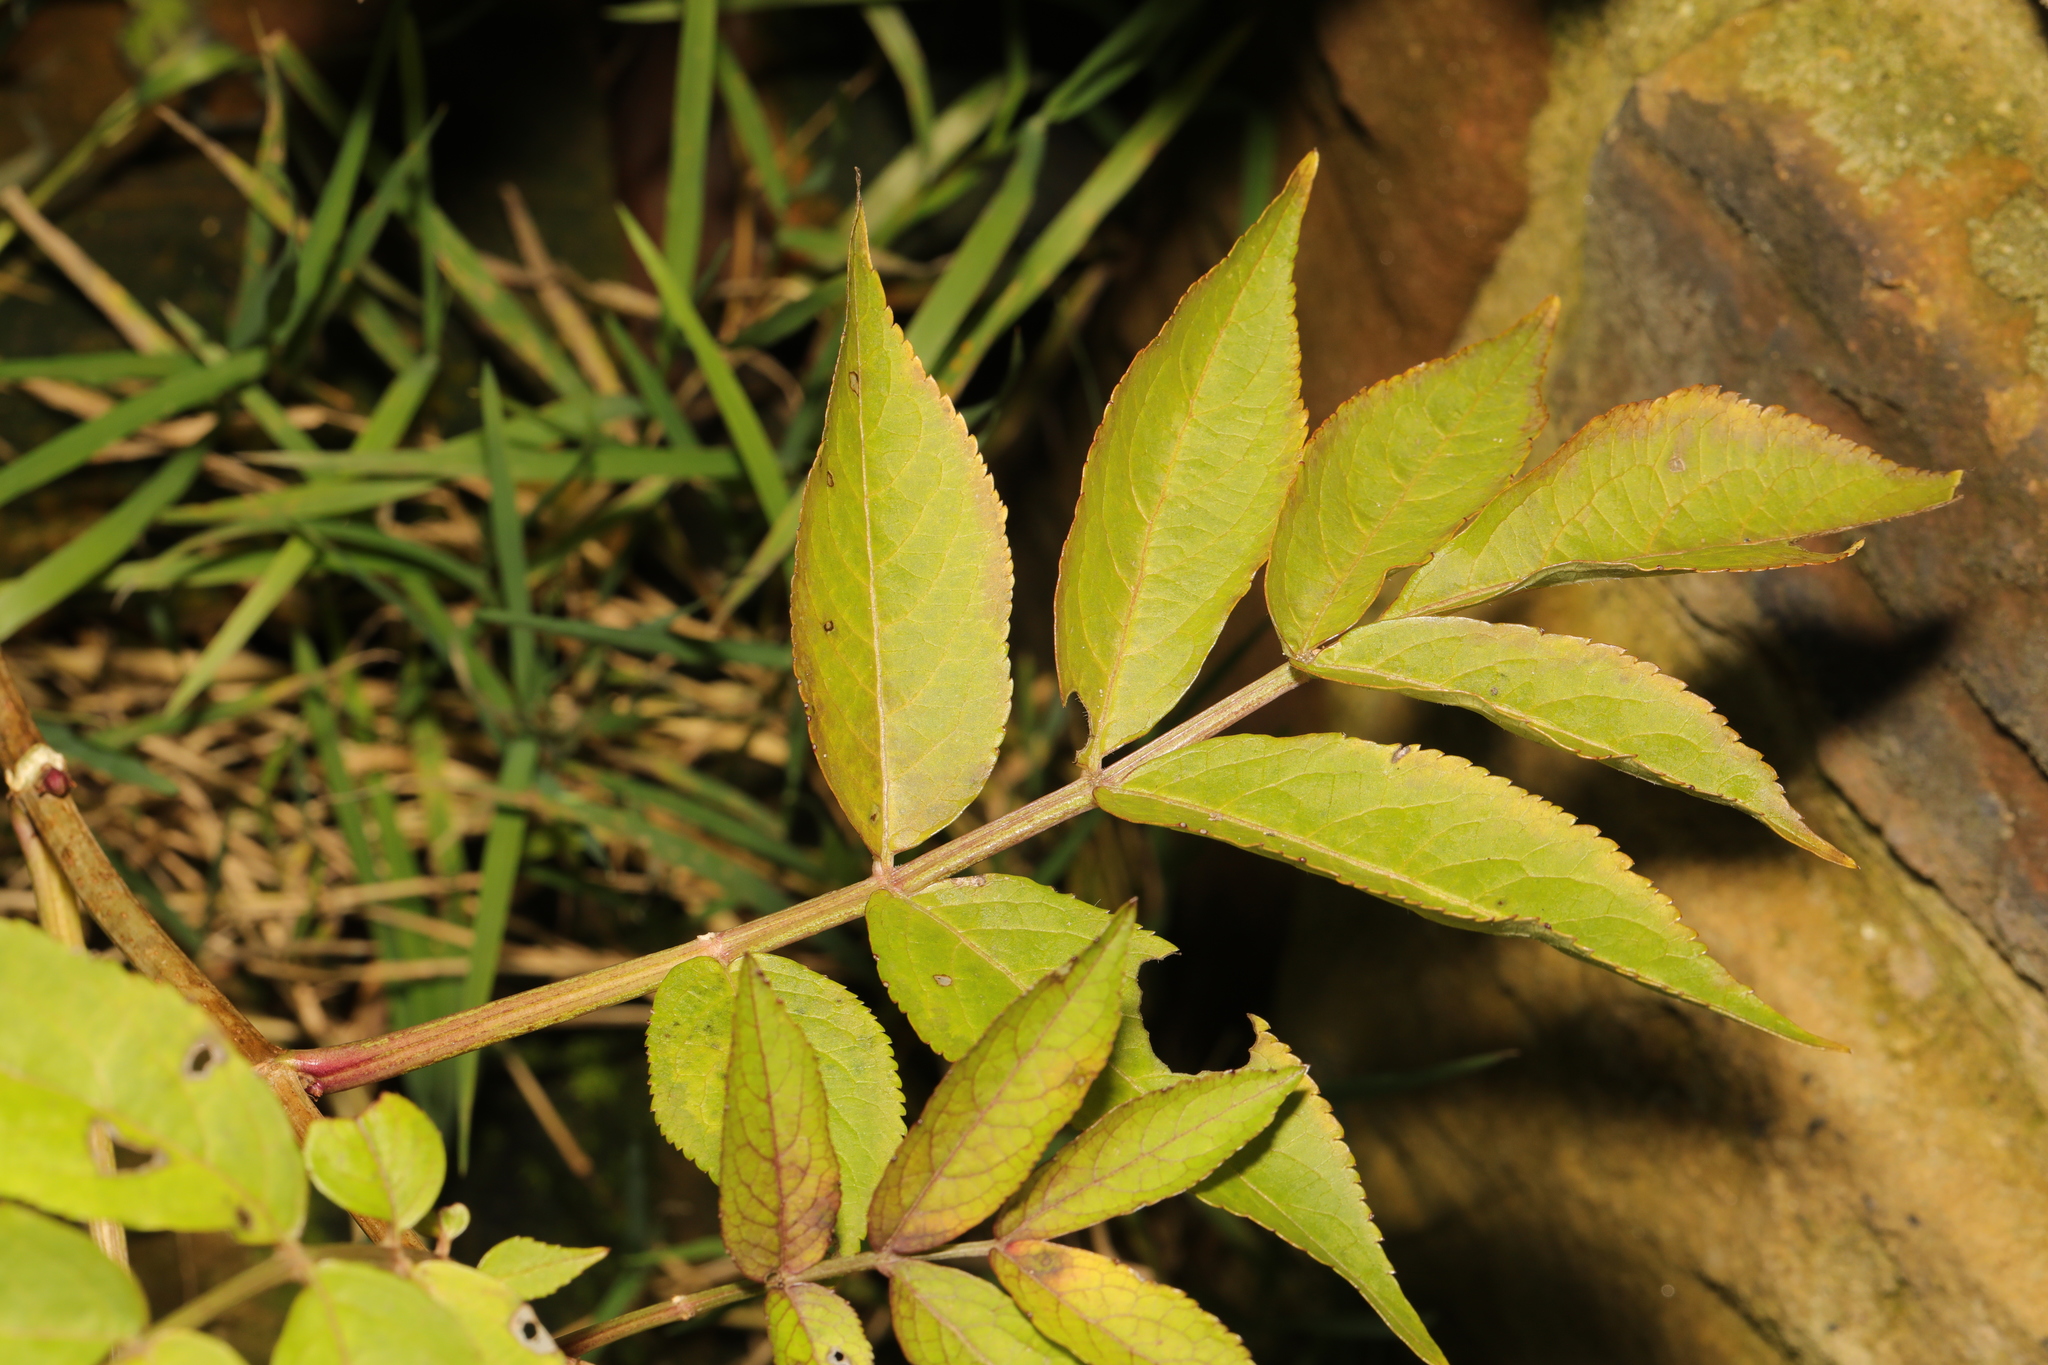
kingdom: Plantae
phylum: Tracheophyta
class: Magnoliopsida
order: Dipsacales
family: Viburnaceae
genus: Sambucus
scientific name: Sambucus nigra
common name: Elder
